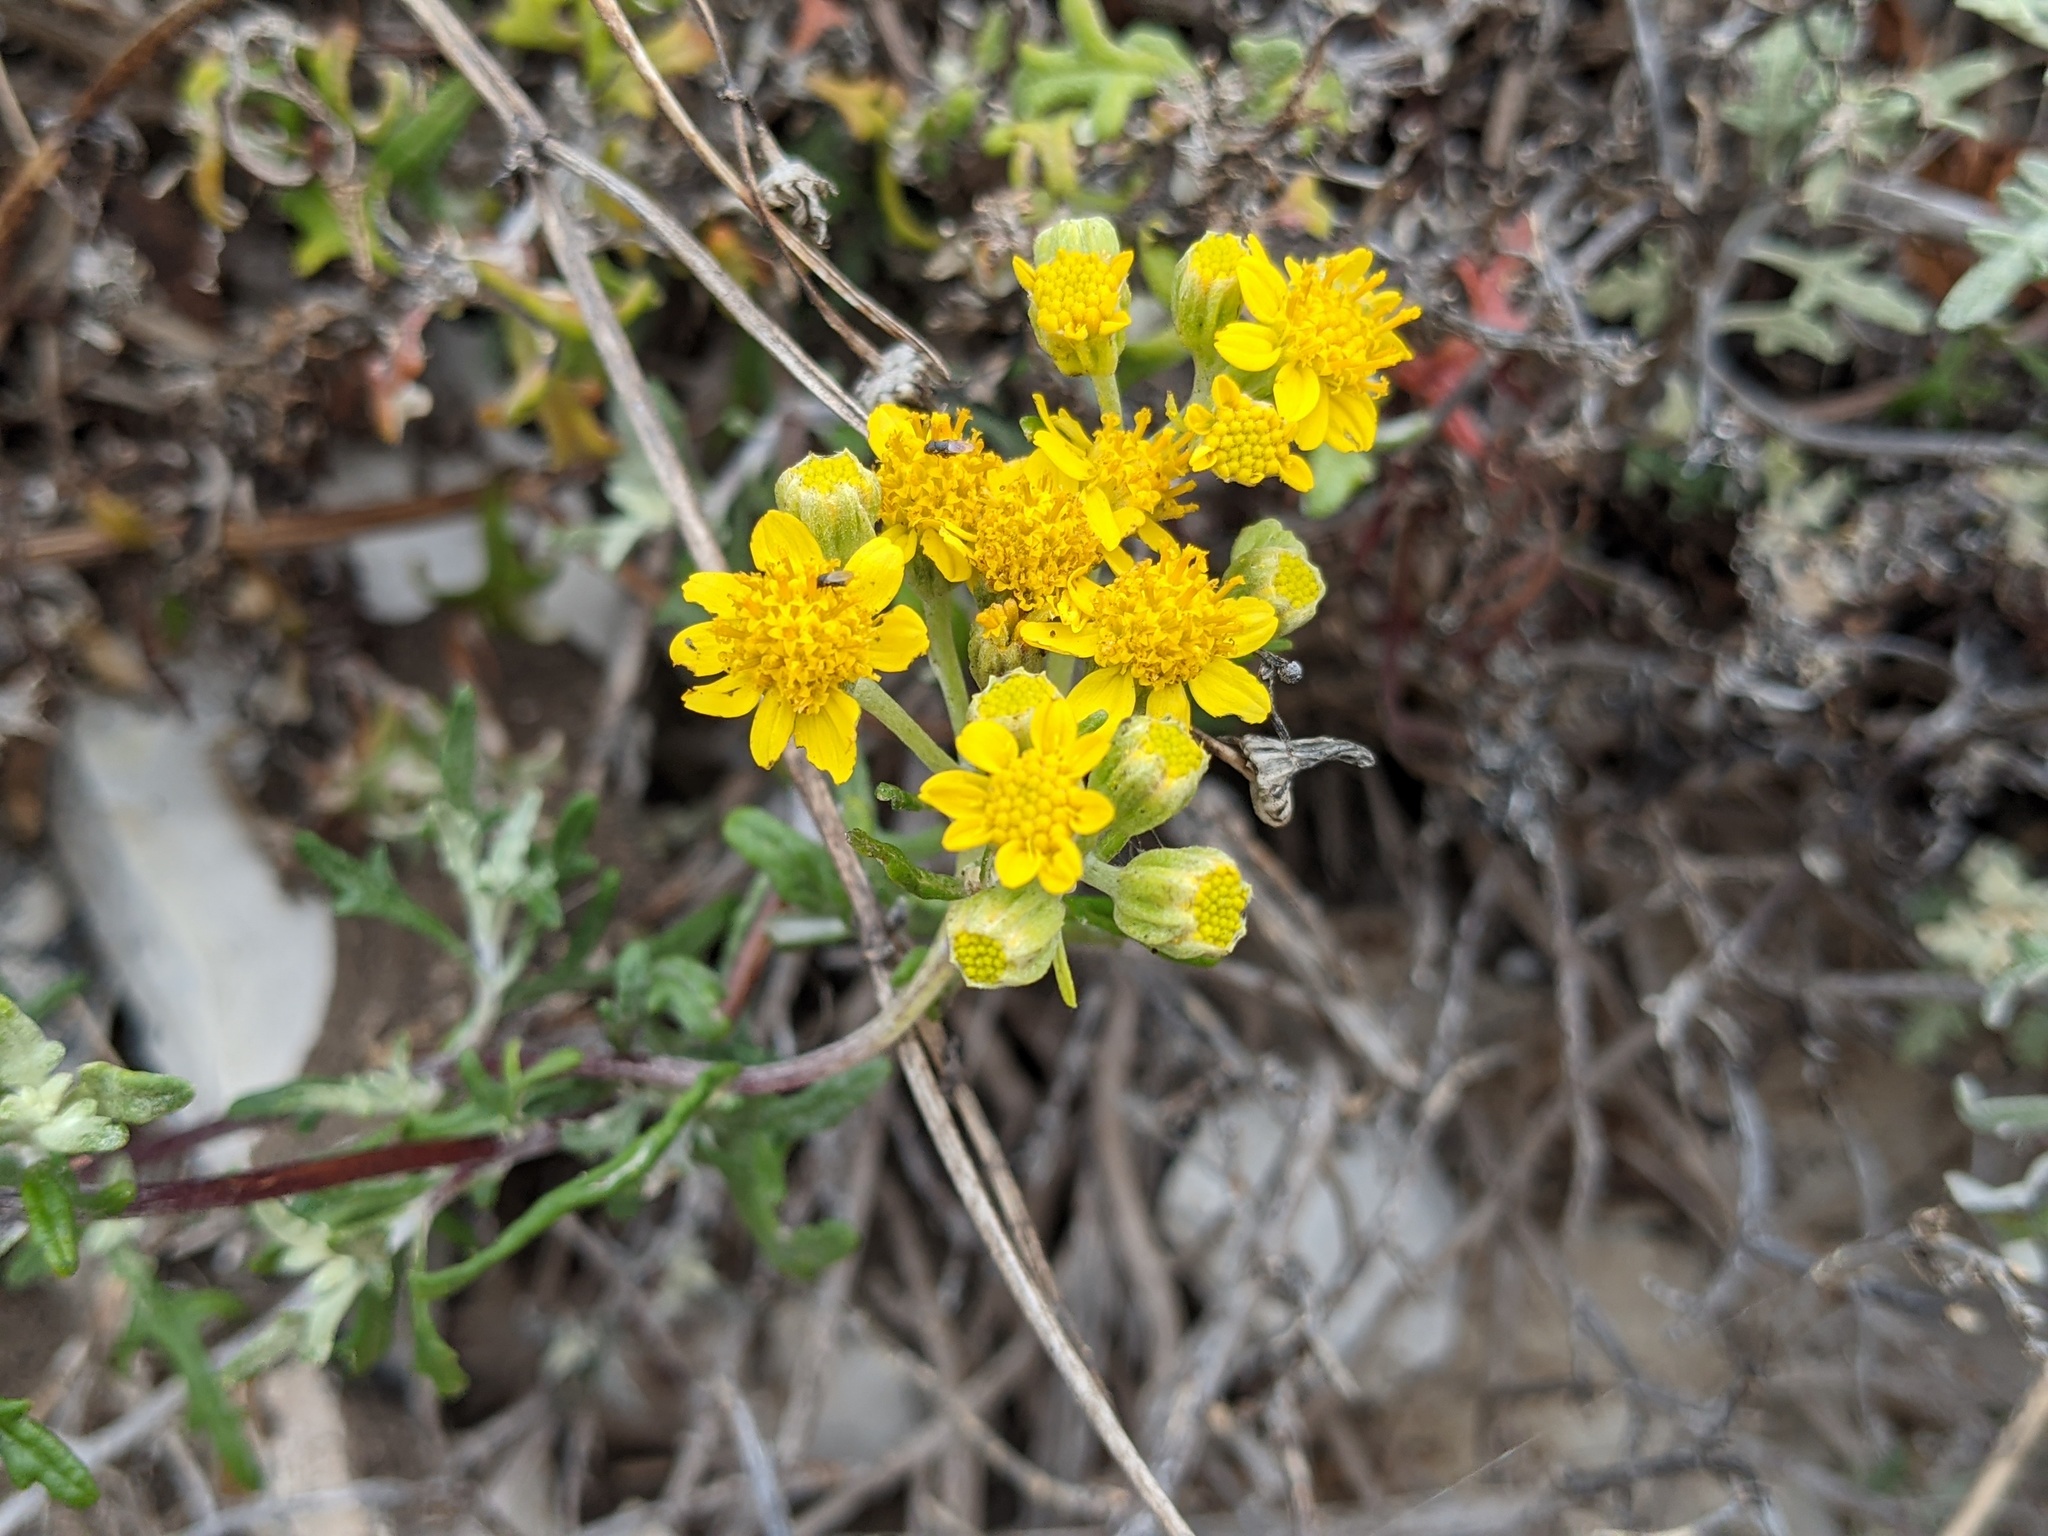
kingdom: Plantae
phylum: Tracheophyta
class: Magnoliopsida
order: Asterales
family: Asteraceae
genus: Eriophyllum
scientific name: Eriophyllum staechadifolium
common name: Lizardtail
